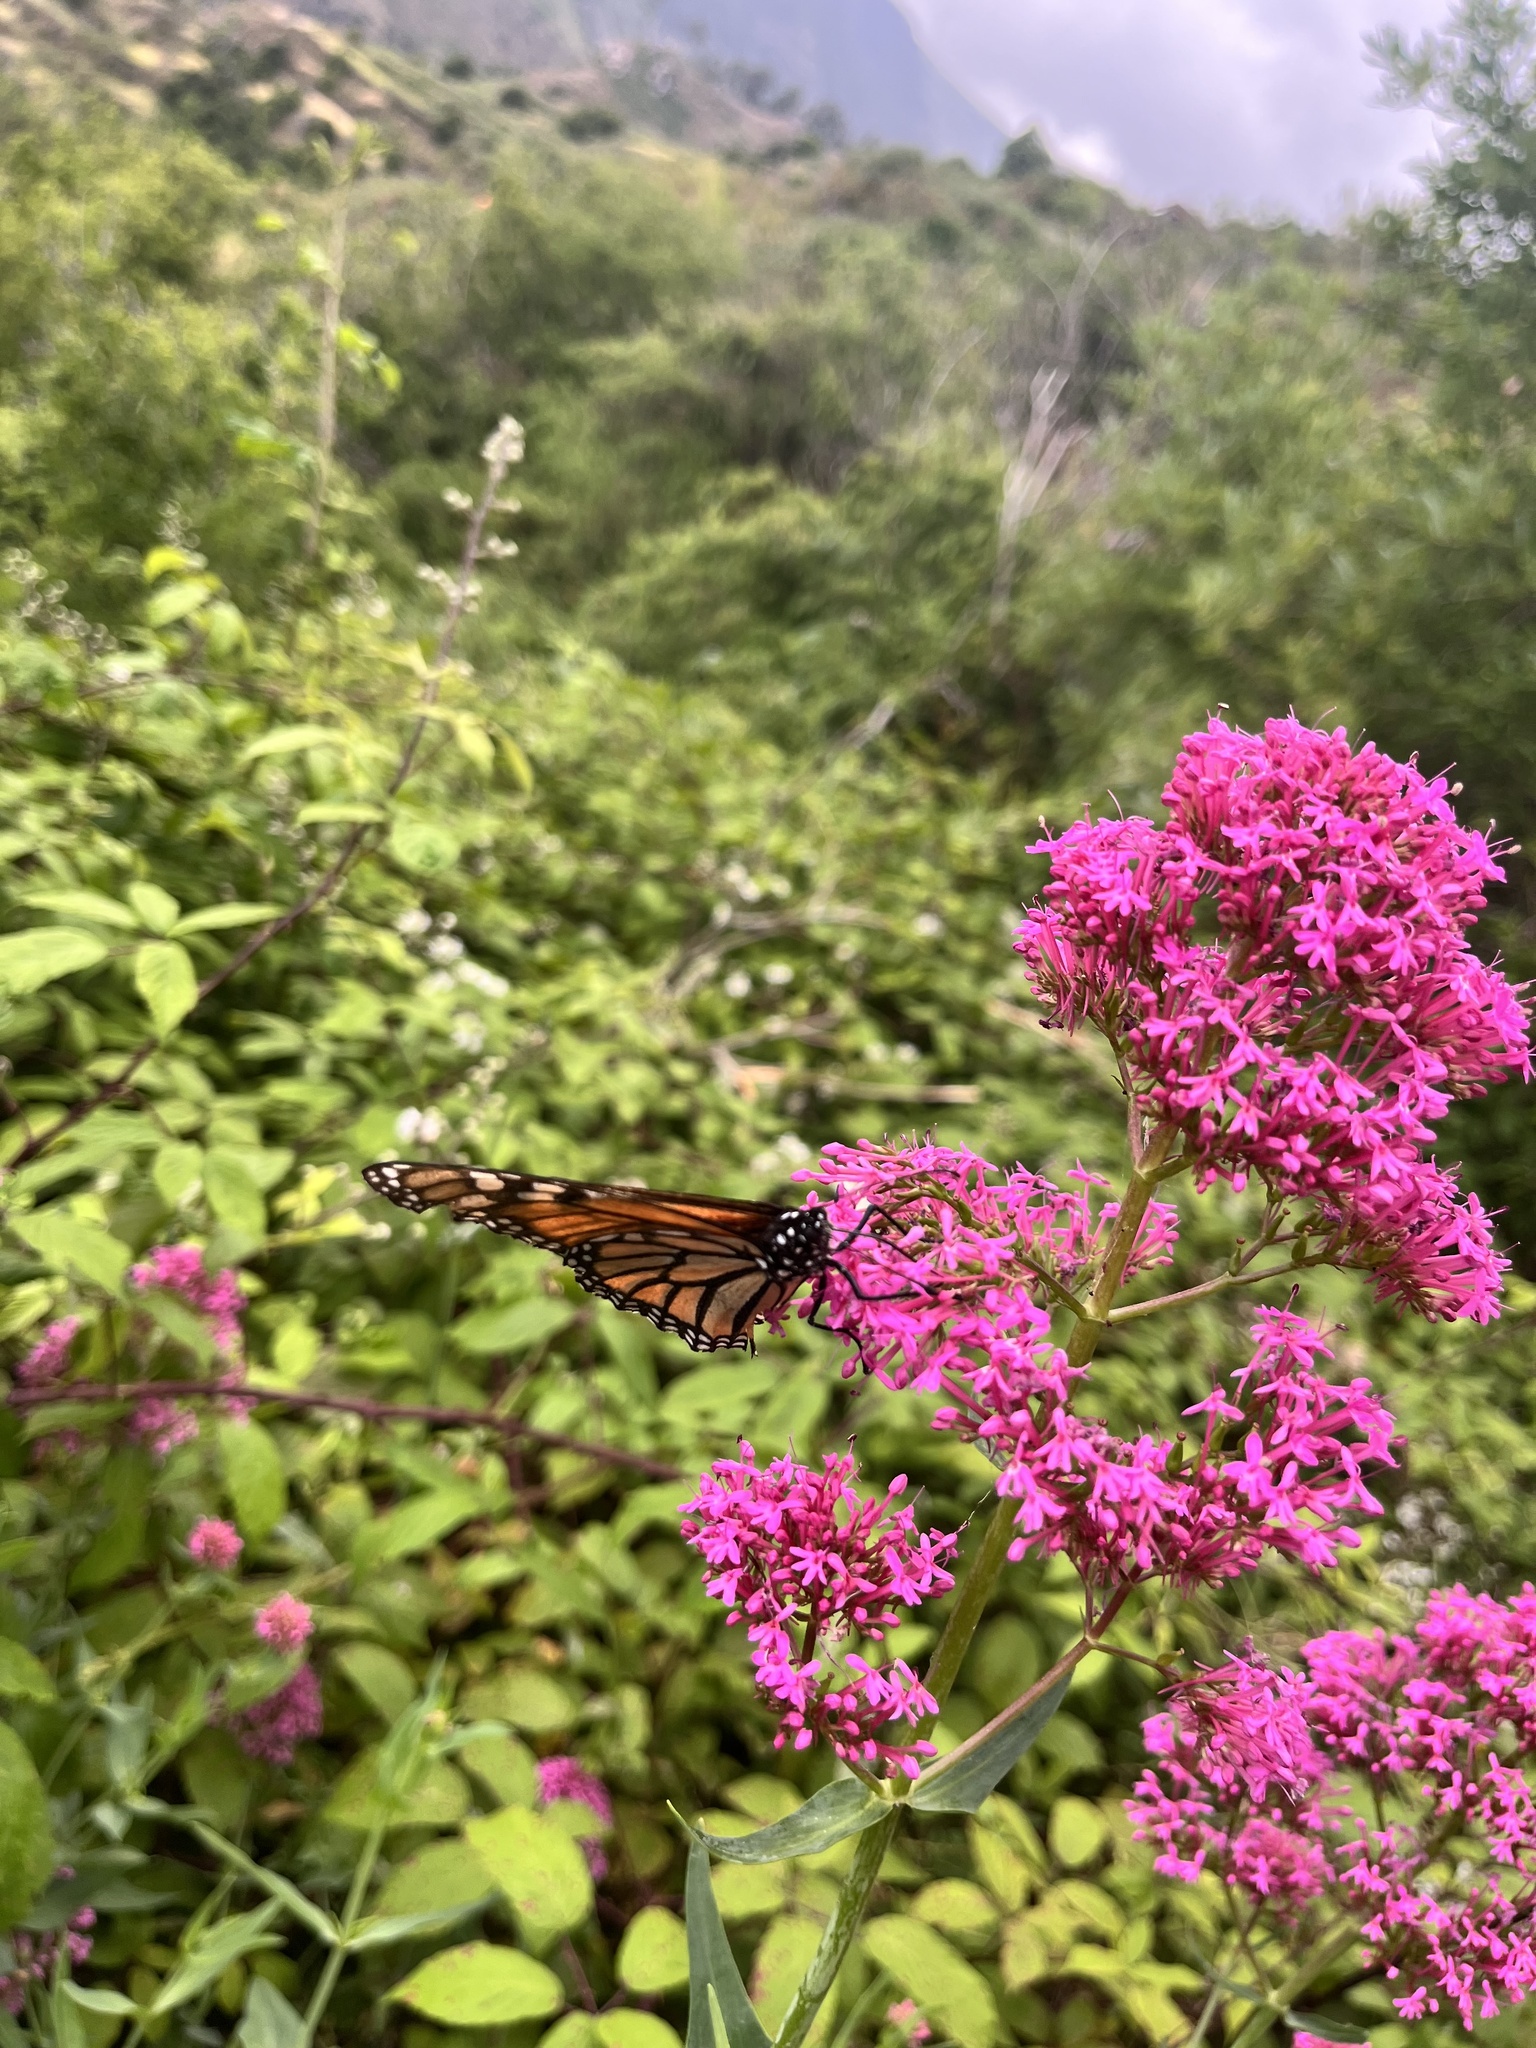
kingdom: Animalia
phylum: Arthropoda
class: Insecta
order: Lepidoptera
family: Nymphalidae
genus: Danaus
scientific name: Danaus plexippus
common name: Monarch
